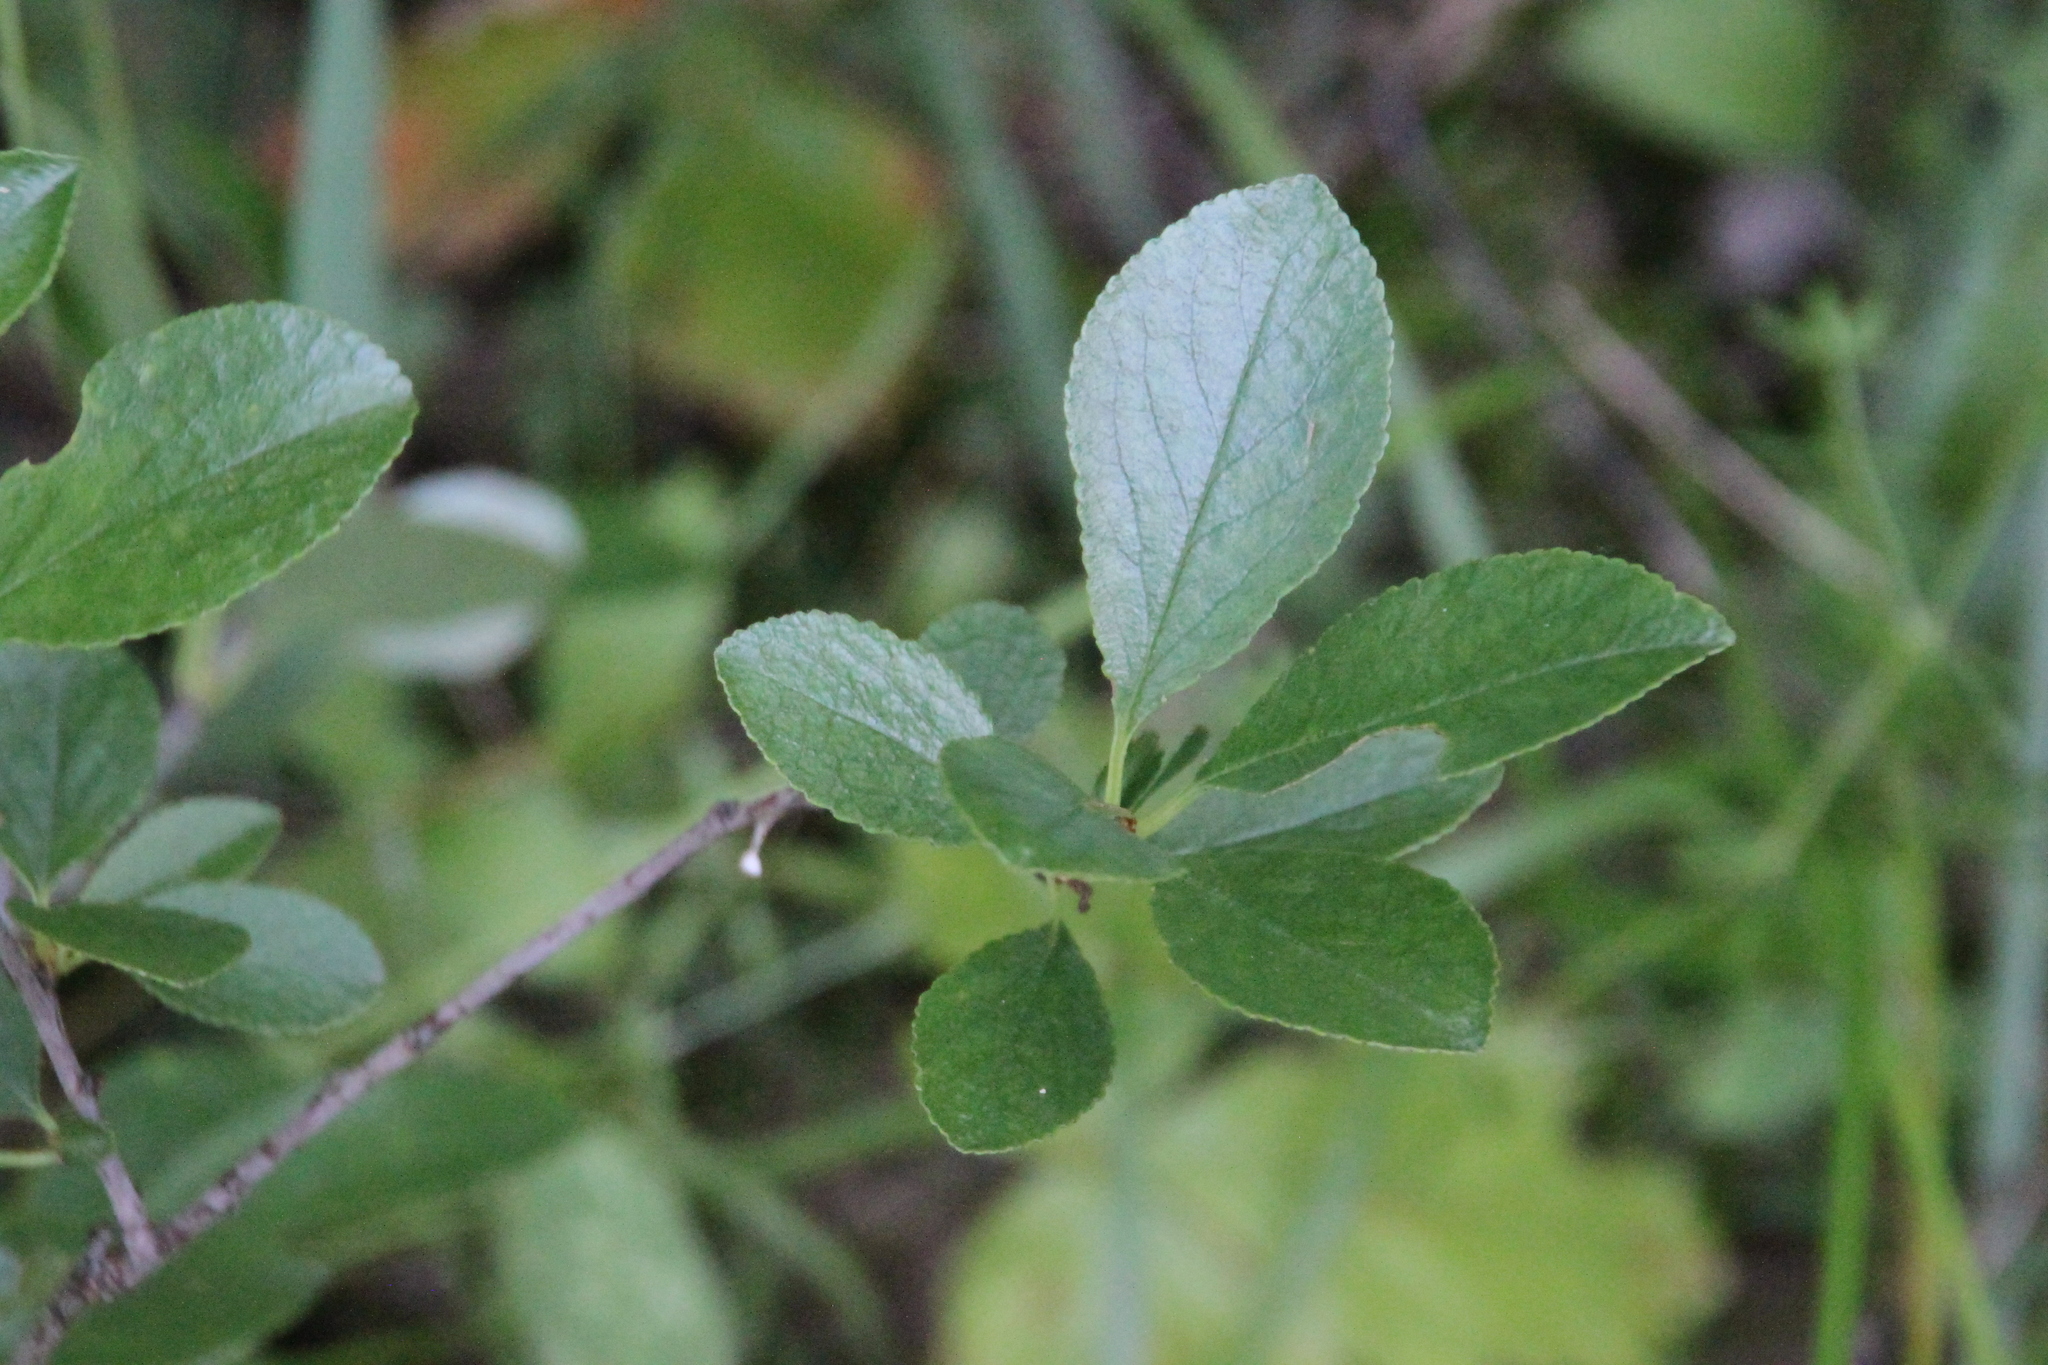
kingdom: Plantae
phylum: Tracheophyta
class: Magnoliopsida
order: Rosales
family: Rosaceae
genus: Prunus
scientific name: Prunus fruticosa
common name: European dwarf cherry
